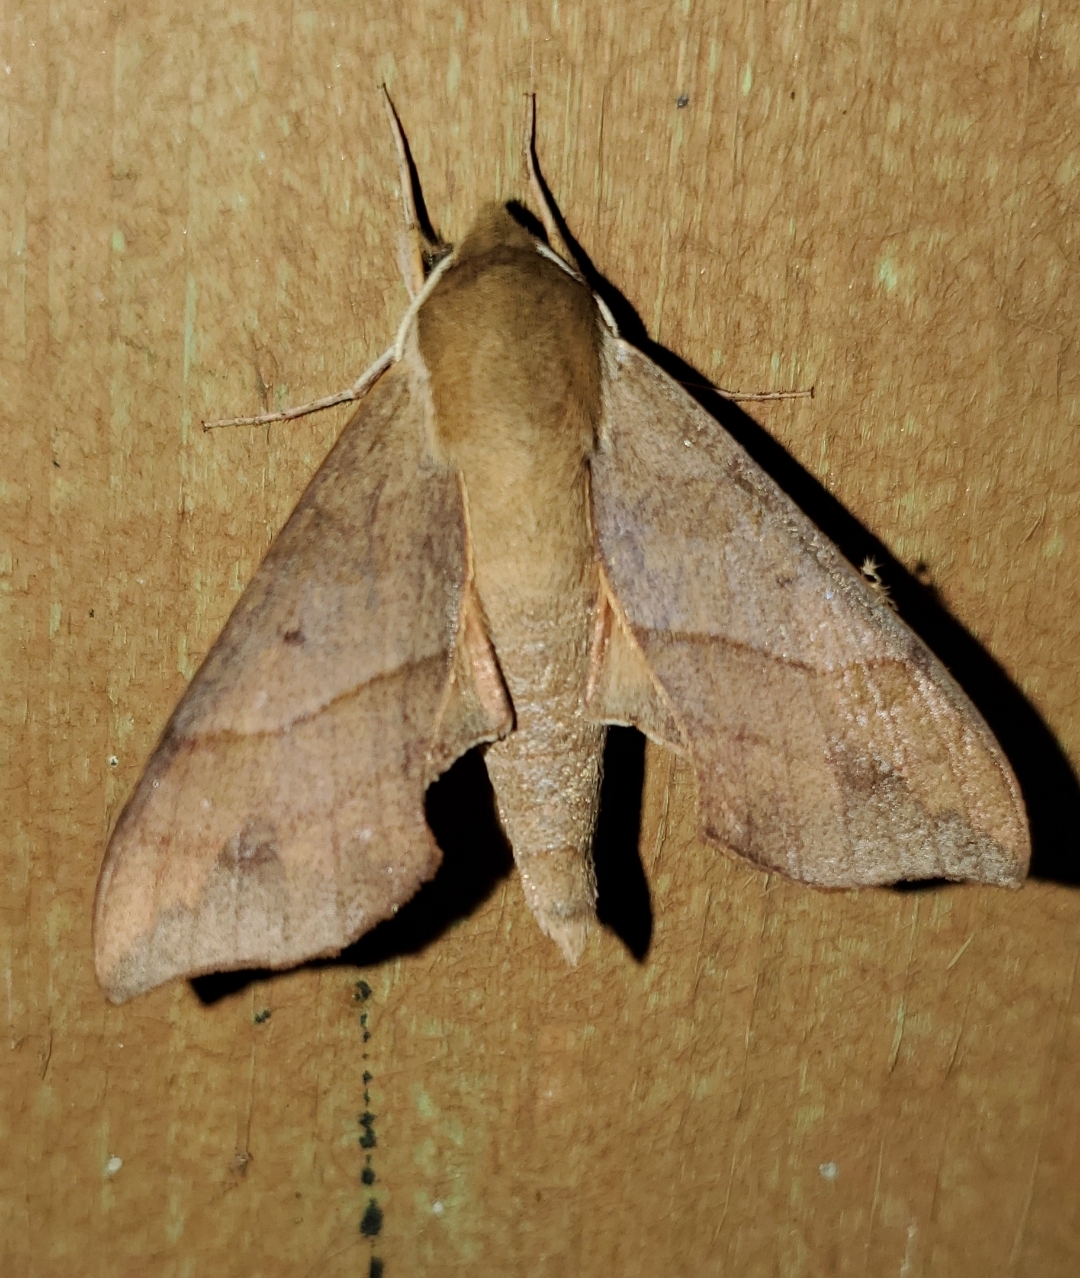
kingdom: Animalia
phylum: Arthropoda
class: Insecta
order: Lepidoptera
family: Sphingidae
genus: Darapsa
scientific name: Darapsa myron
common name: Hog sphinx
